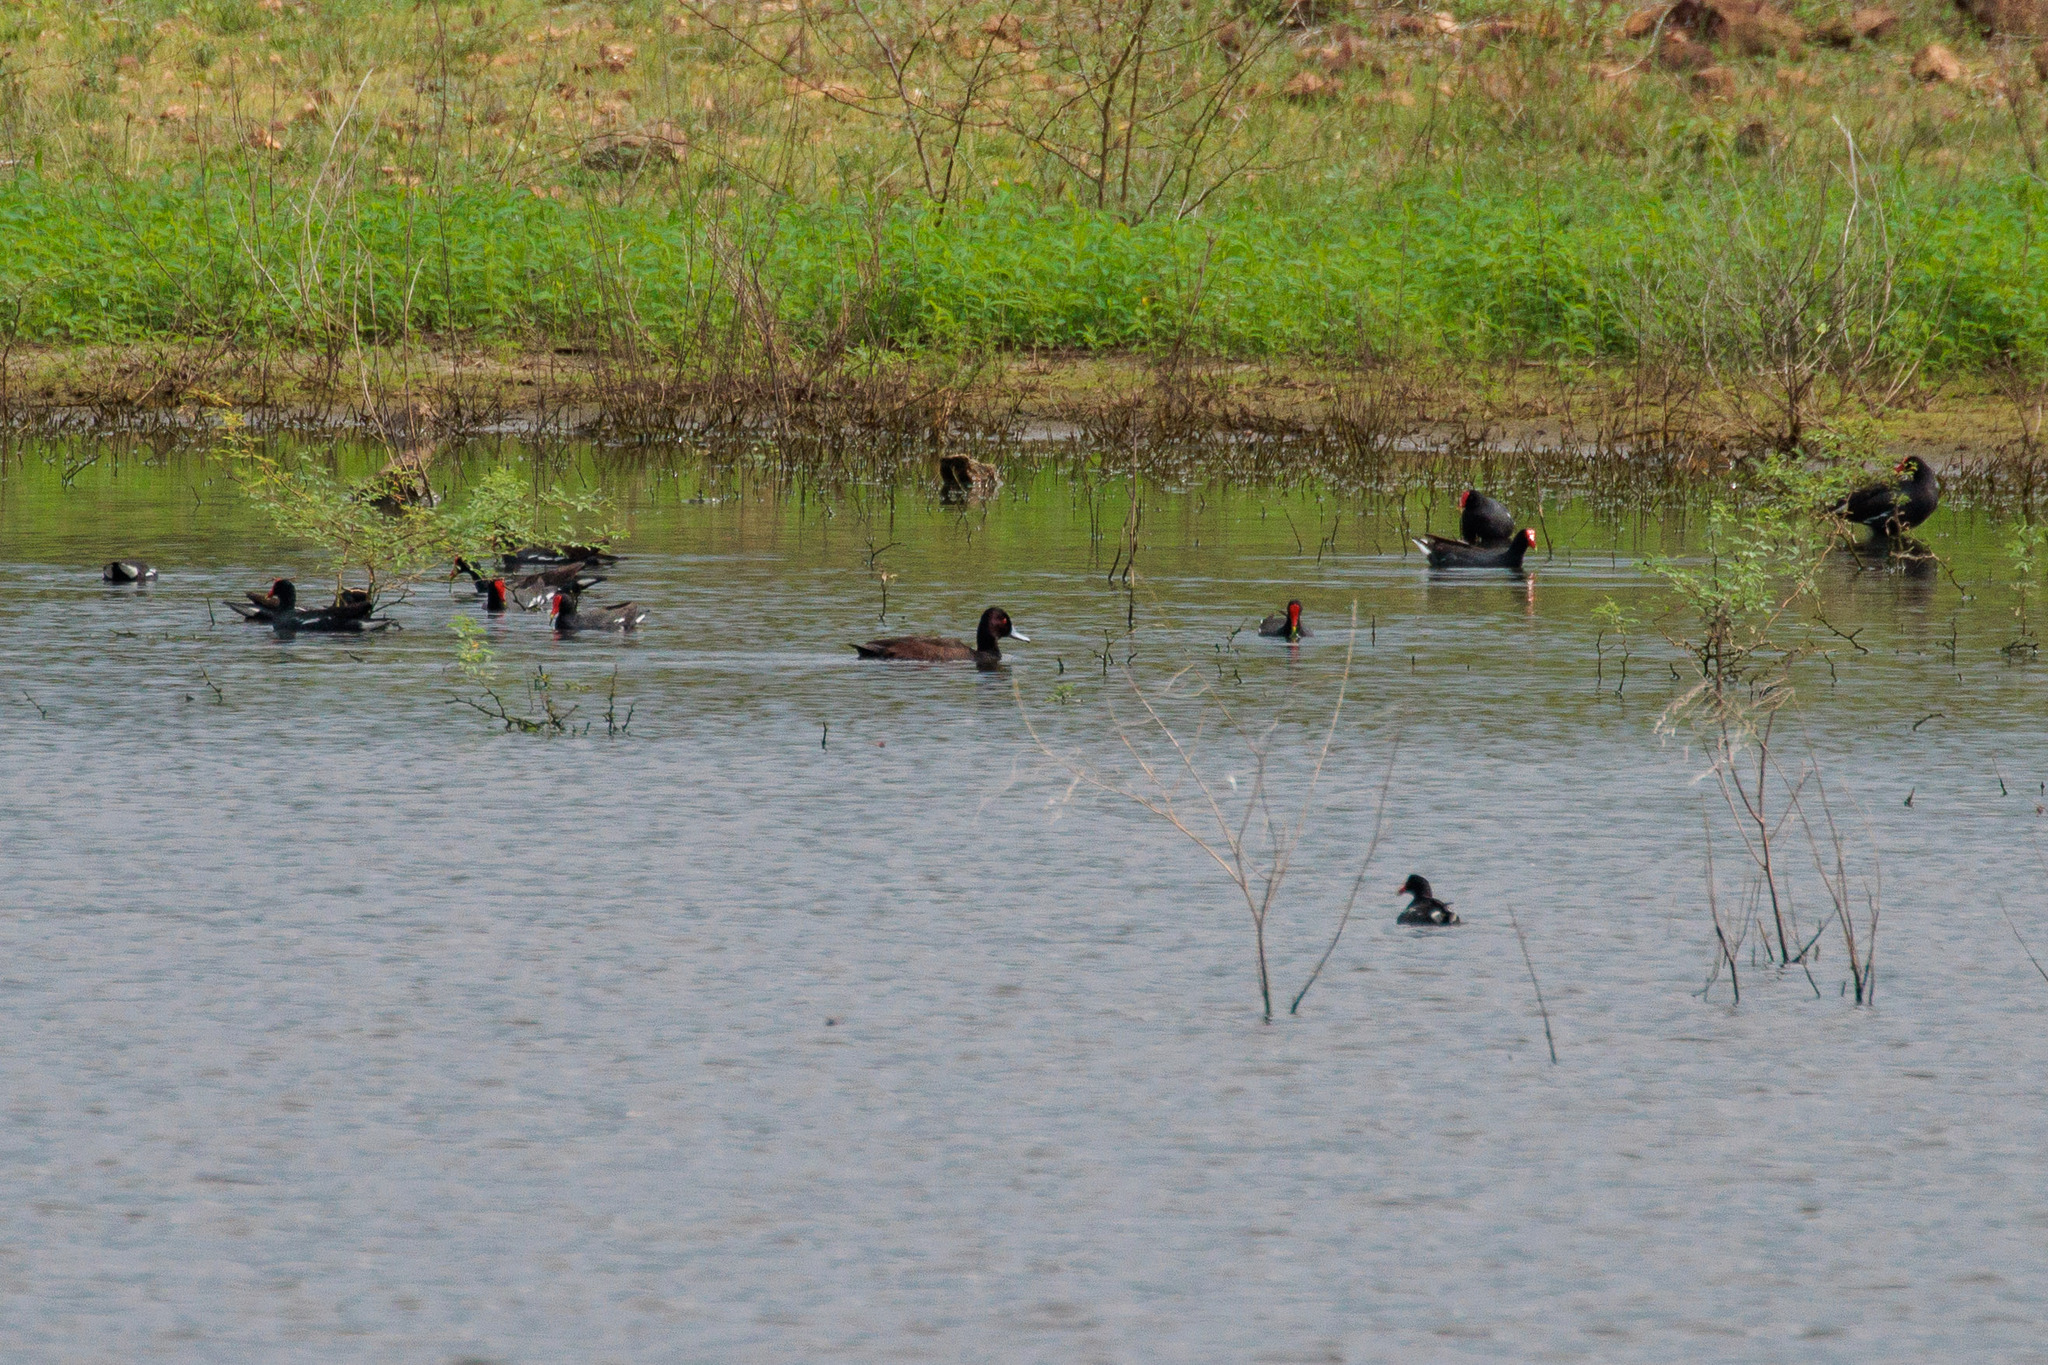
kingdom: Animalia
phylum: Chordata
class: Aves
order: Anseriformes
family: Anatidae
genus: Netta
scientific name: Netta erythrophthalma
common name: Southern pochard
